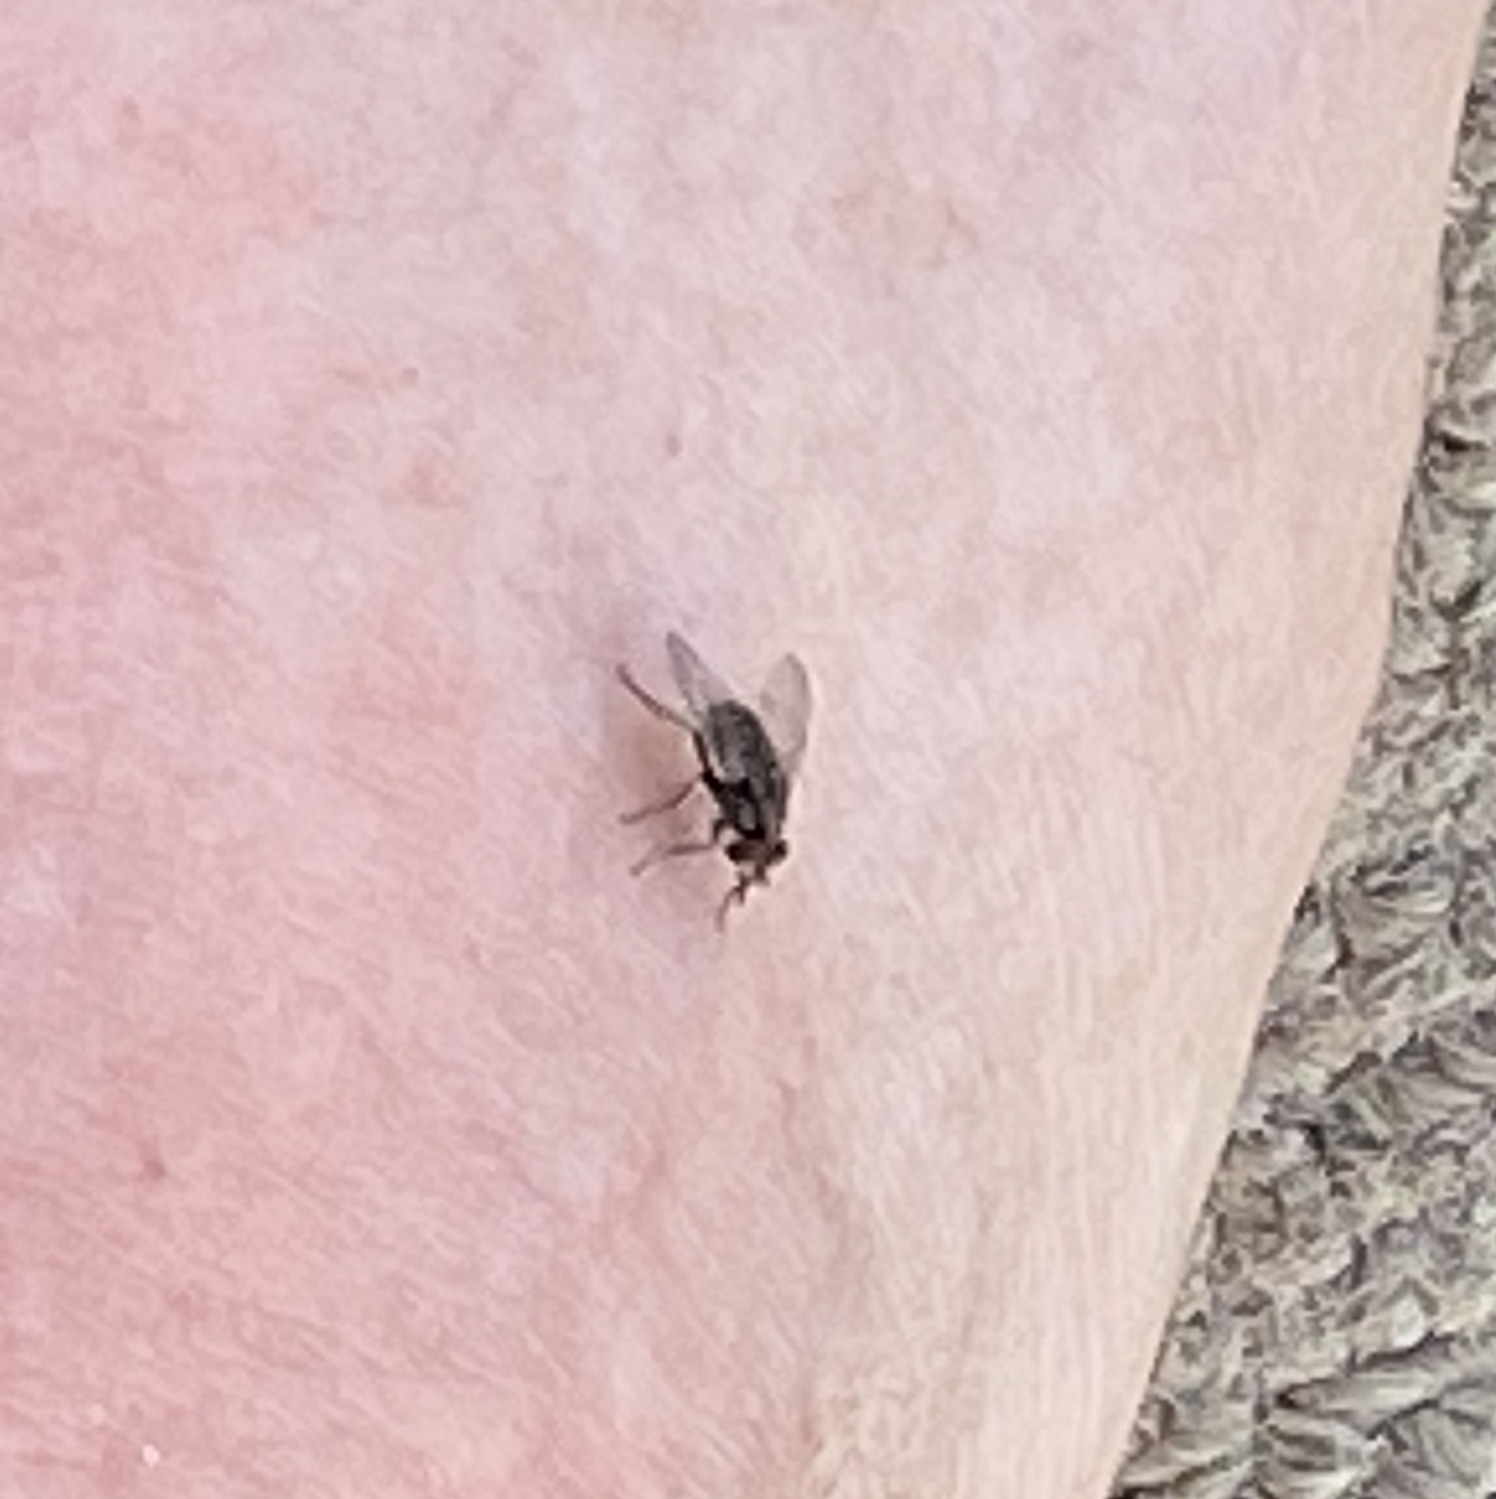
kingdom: Animalia
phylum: Arthropoda
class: Insecta
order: Diptera
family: Muscidae
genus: Stomoxys
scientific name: Stomoxys calcitrans
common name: Stable fly
